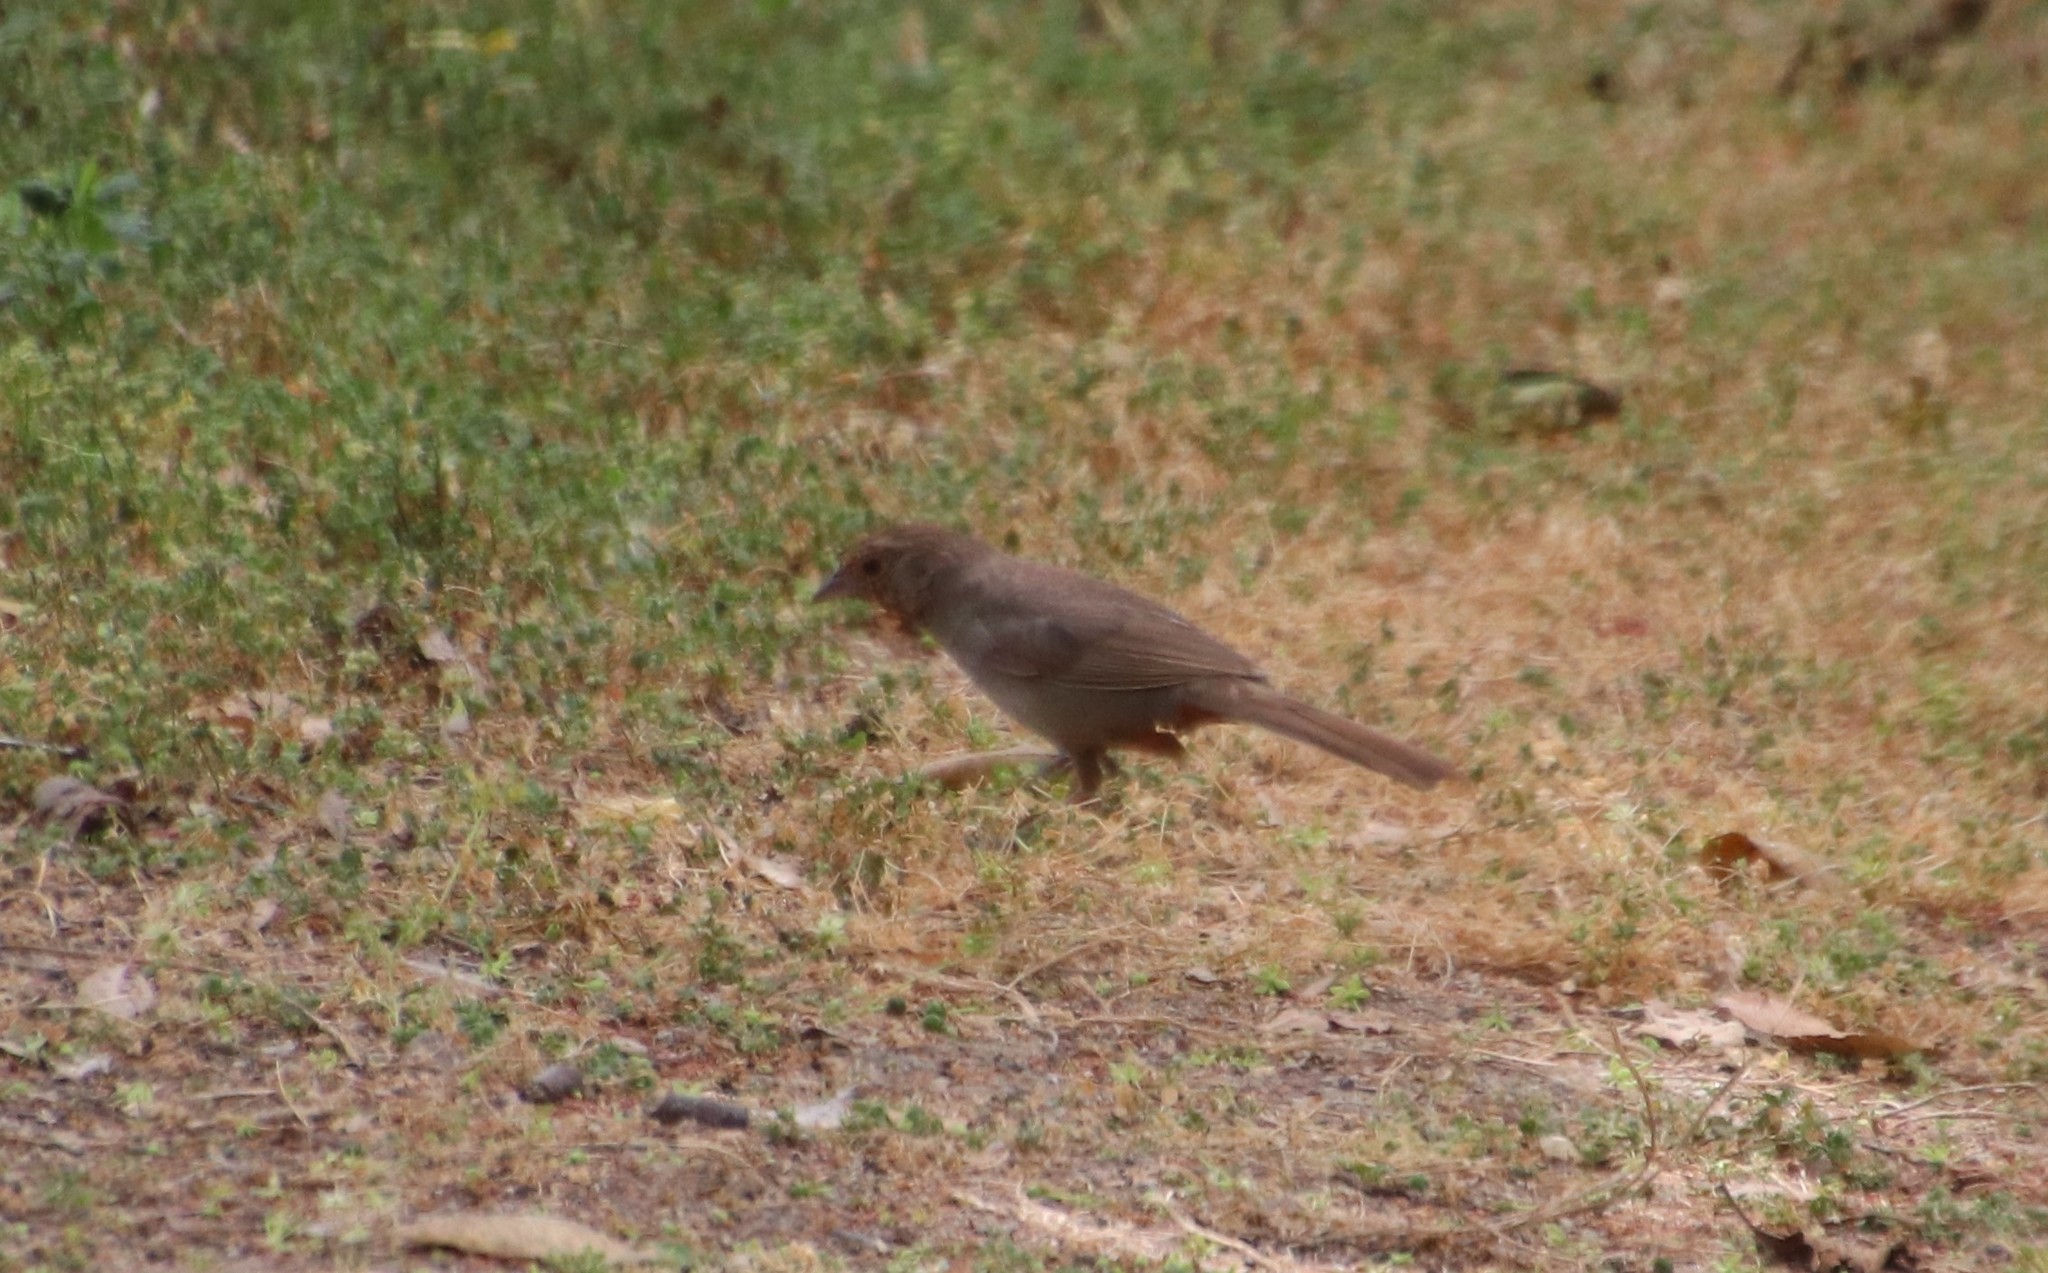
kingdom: Animalia
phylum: Chordata
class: Aves
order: Passeriformes
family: Passerellidae
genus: Melozone
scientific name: Melozone crissalis
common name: California towhee
